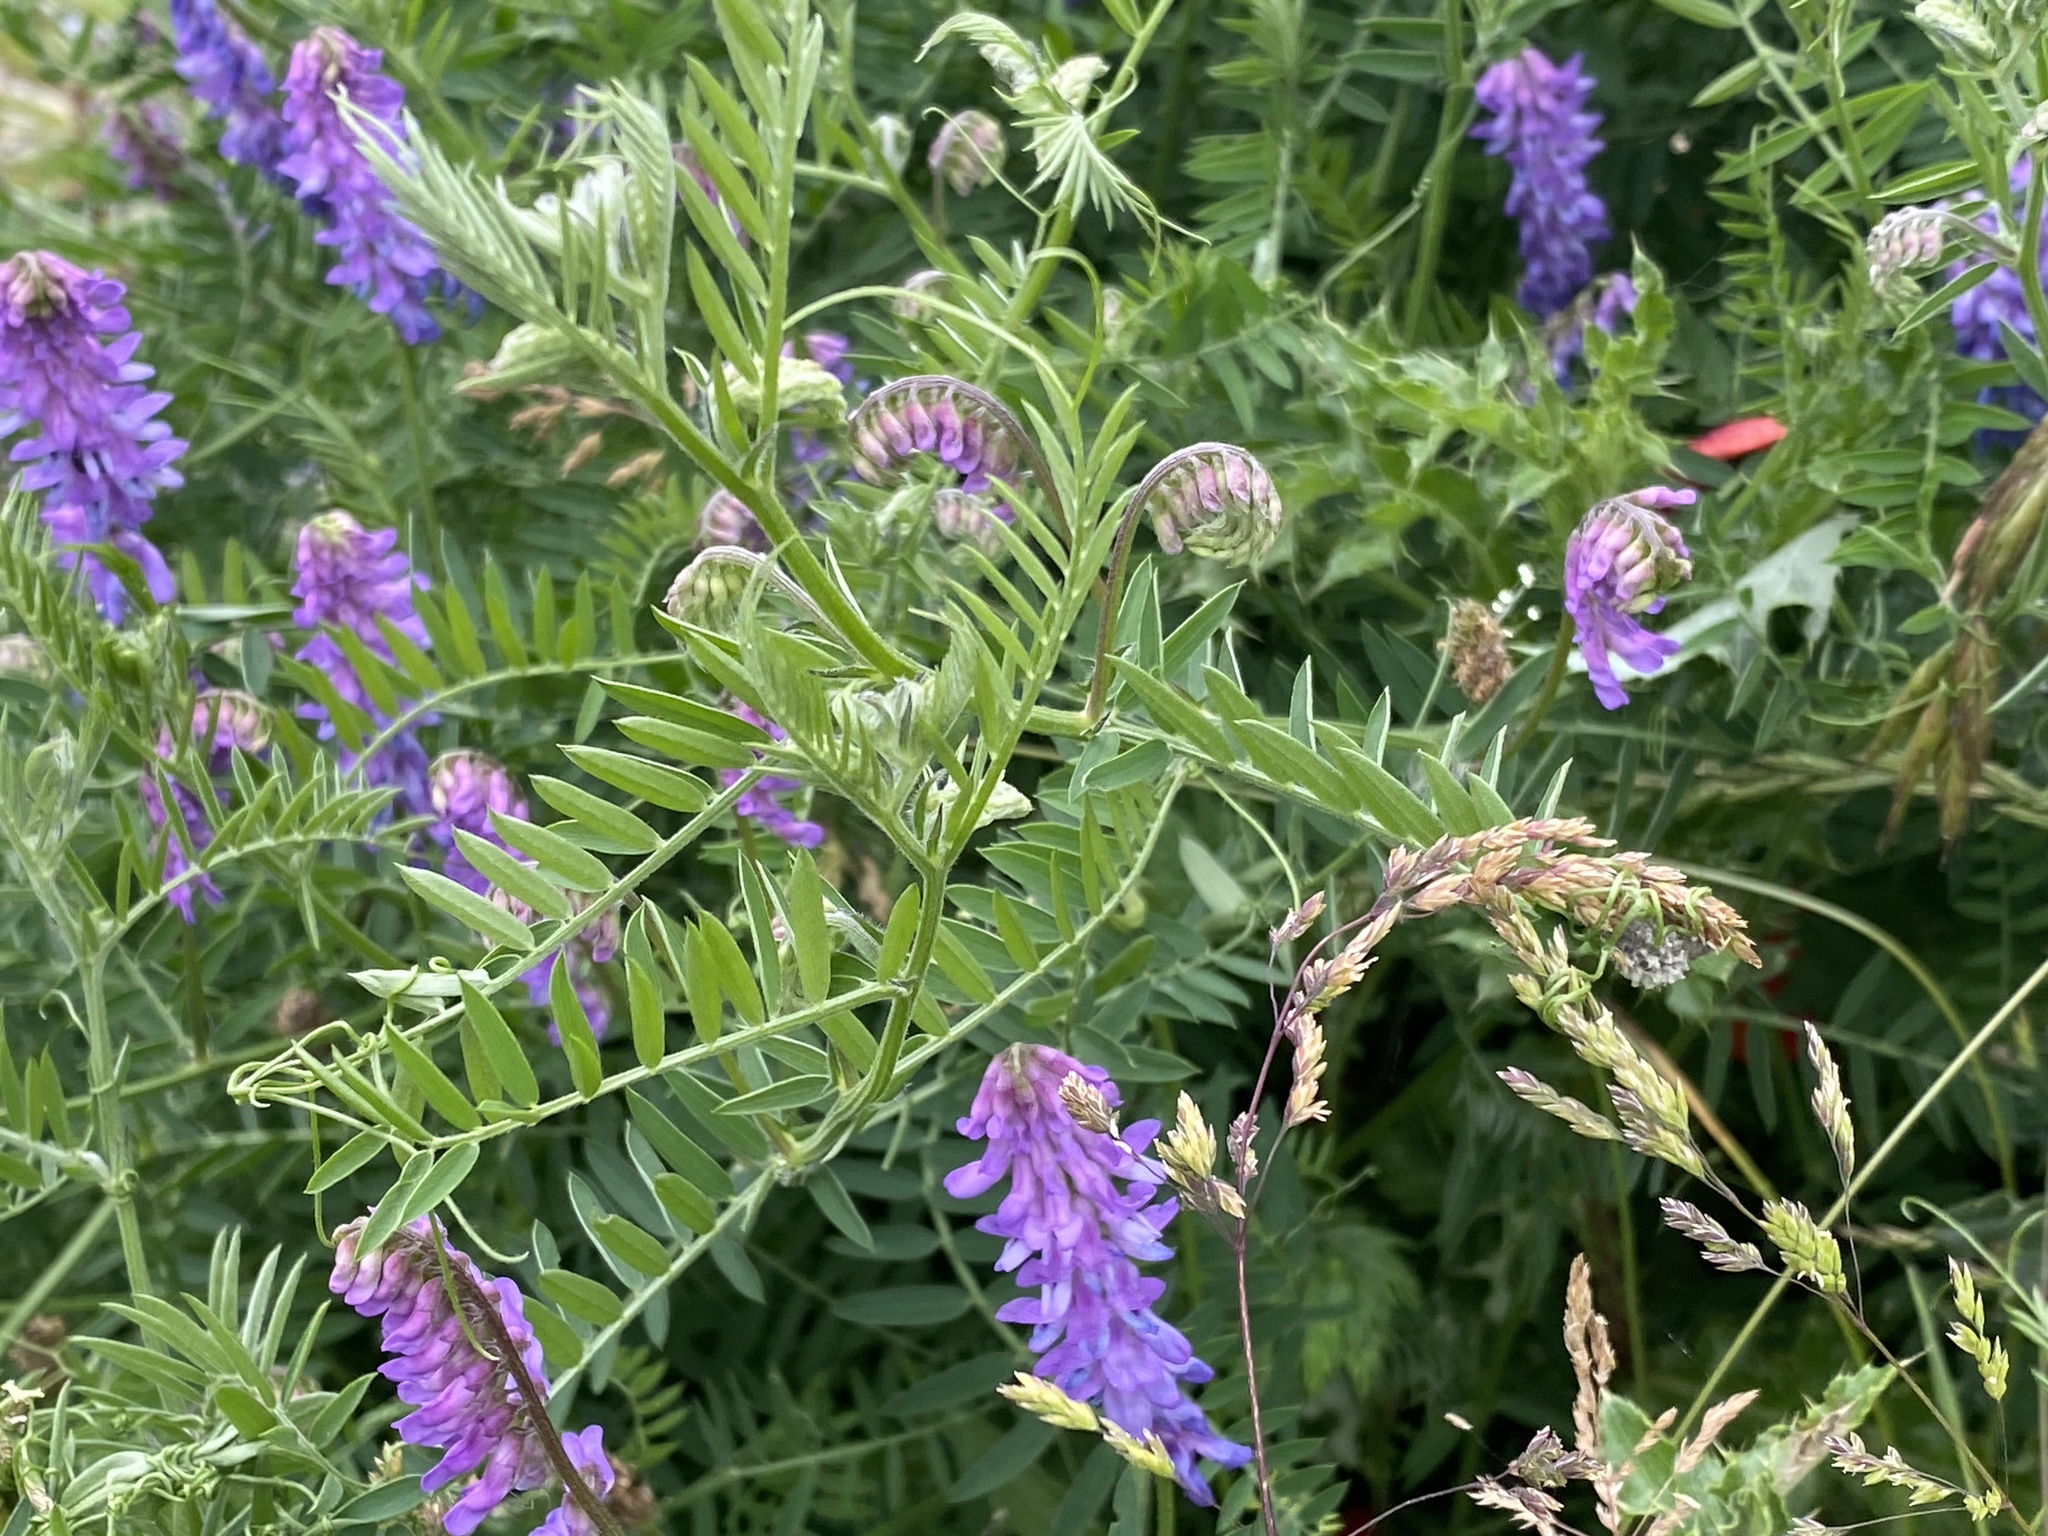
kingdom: Plantae
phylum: Tracheophyta
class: Magnoliopsida
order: Fabales
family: Fabaceae
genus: Vicia
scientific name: Vicia cracca
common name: Bird vetch
